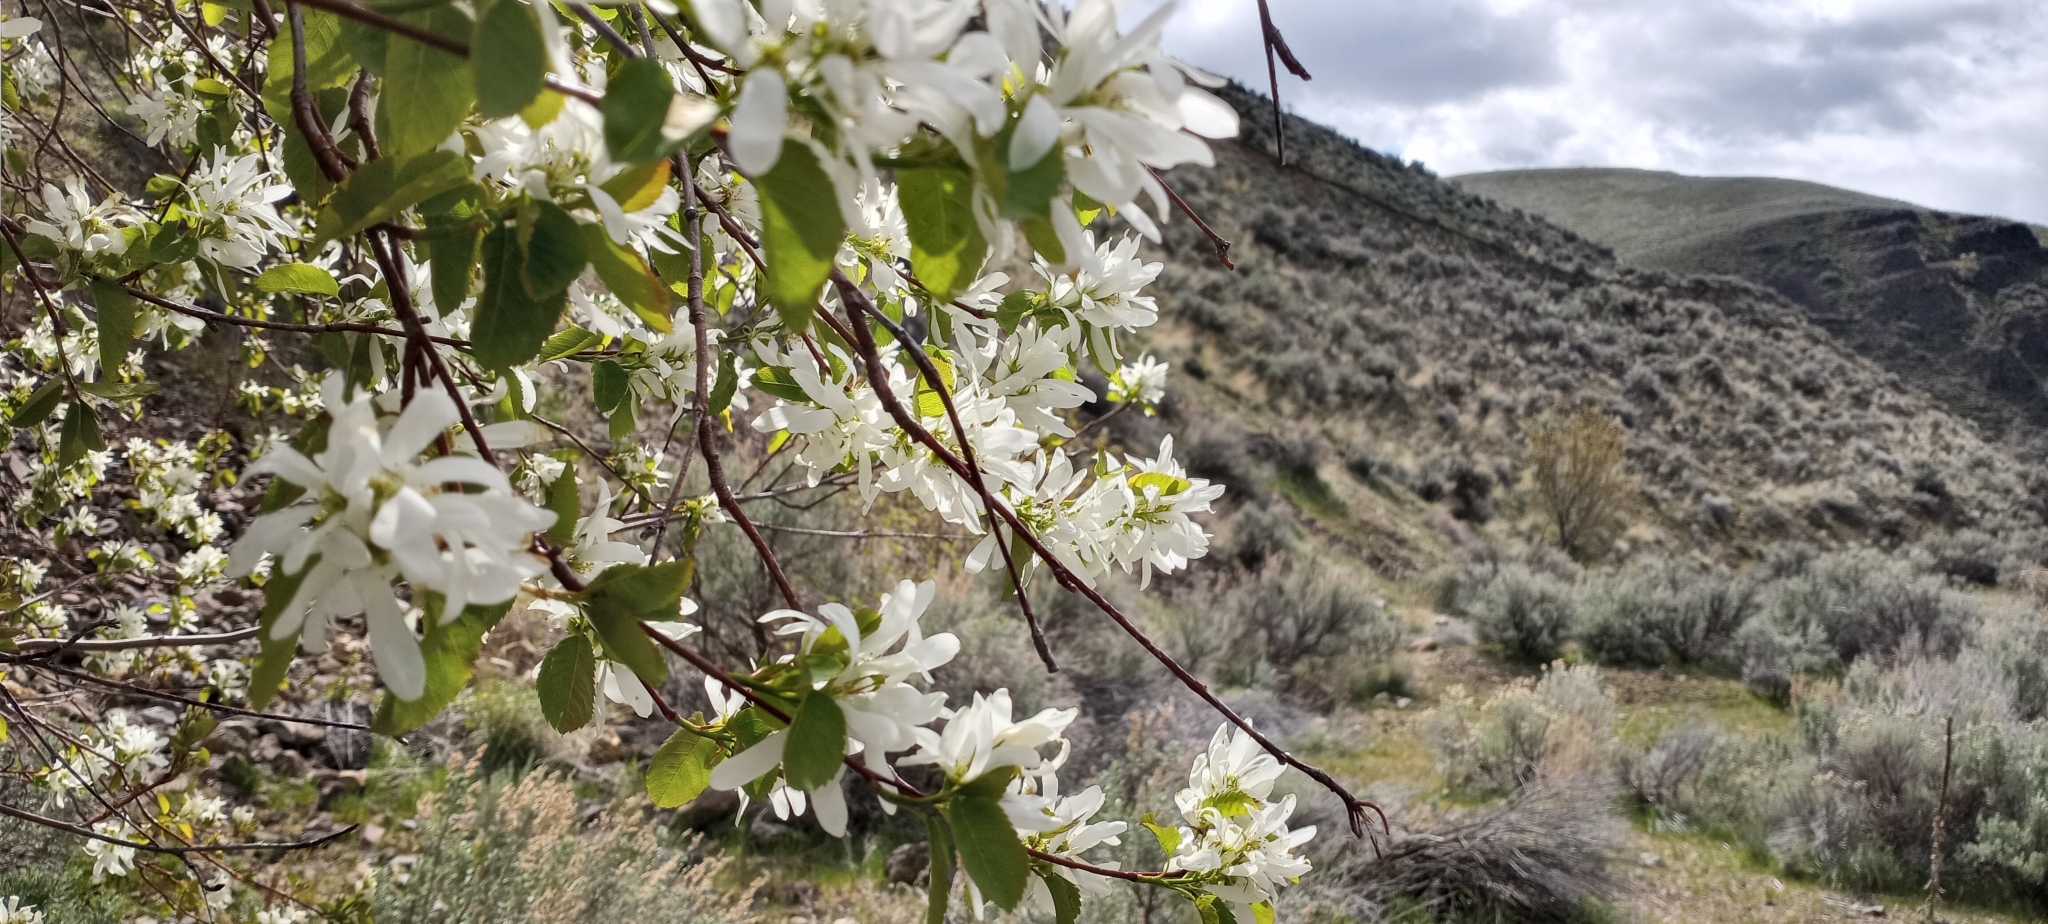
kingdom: Plantae
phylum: Tracheophyta
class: Magnoliopsida
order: Rosales
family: Rosaceae
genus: Amelanchier
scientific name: Amelanchier alnifolia
